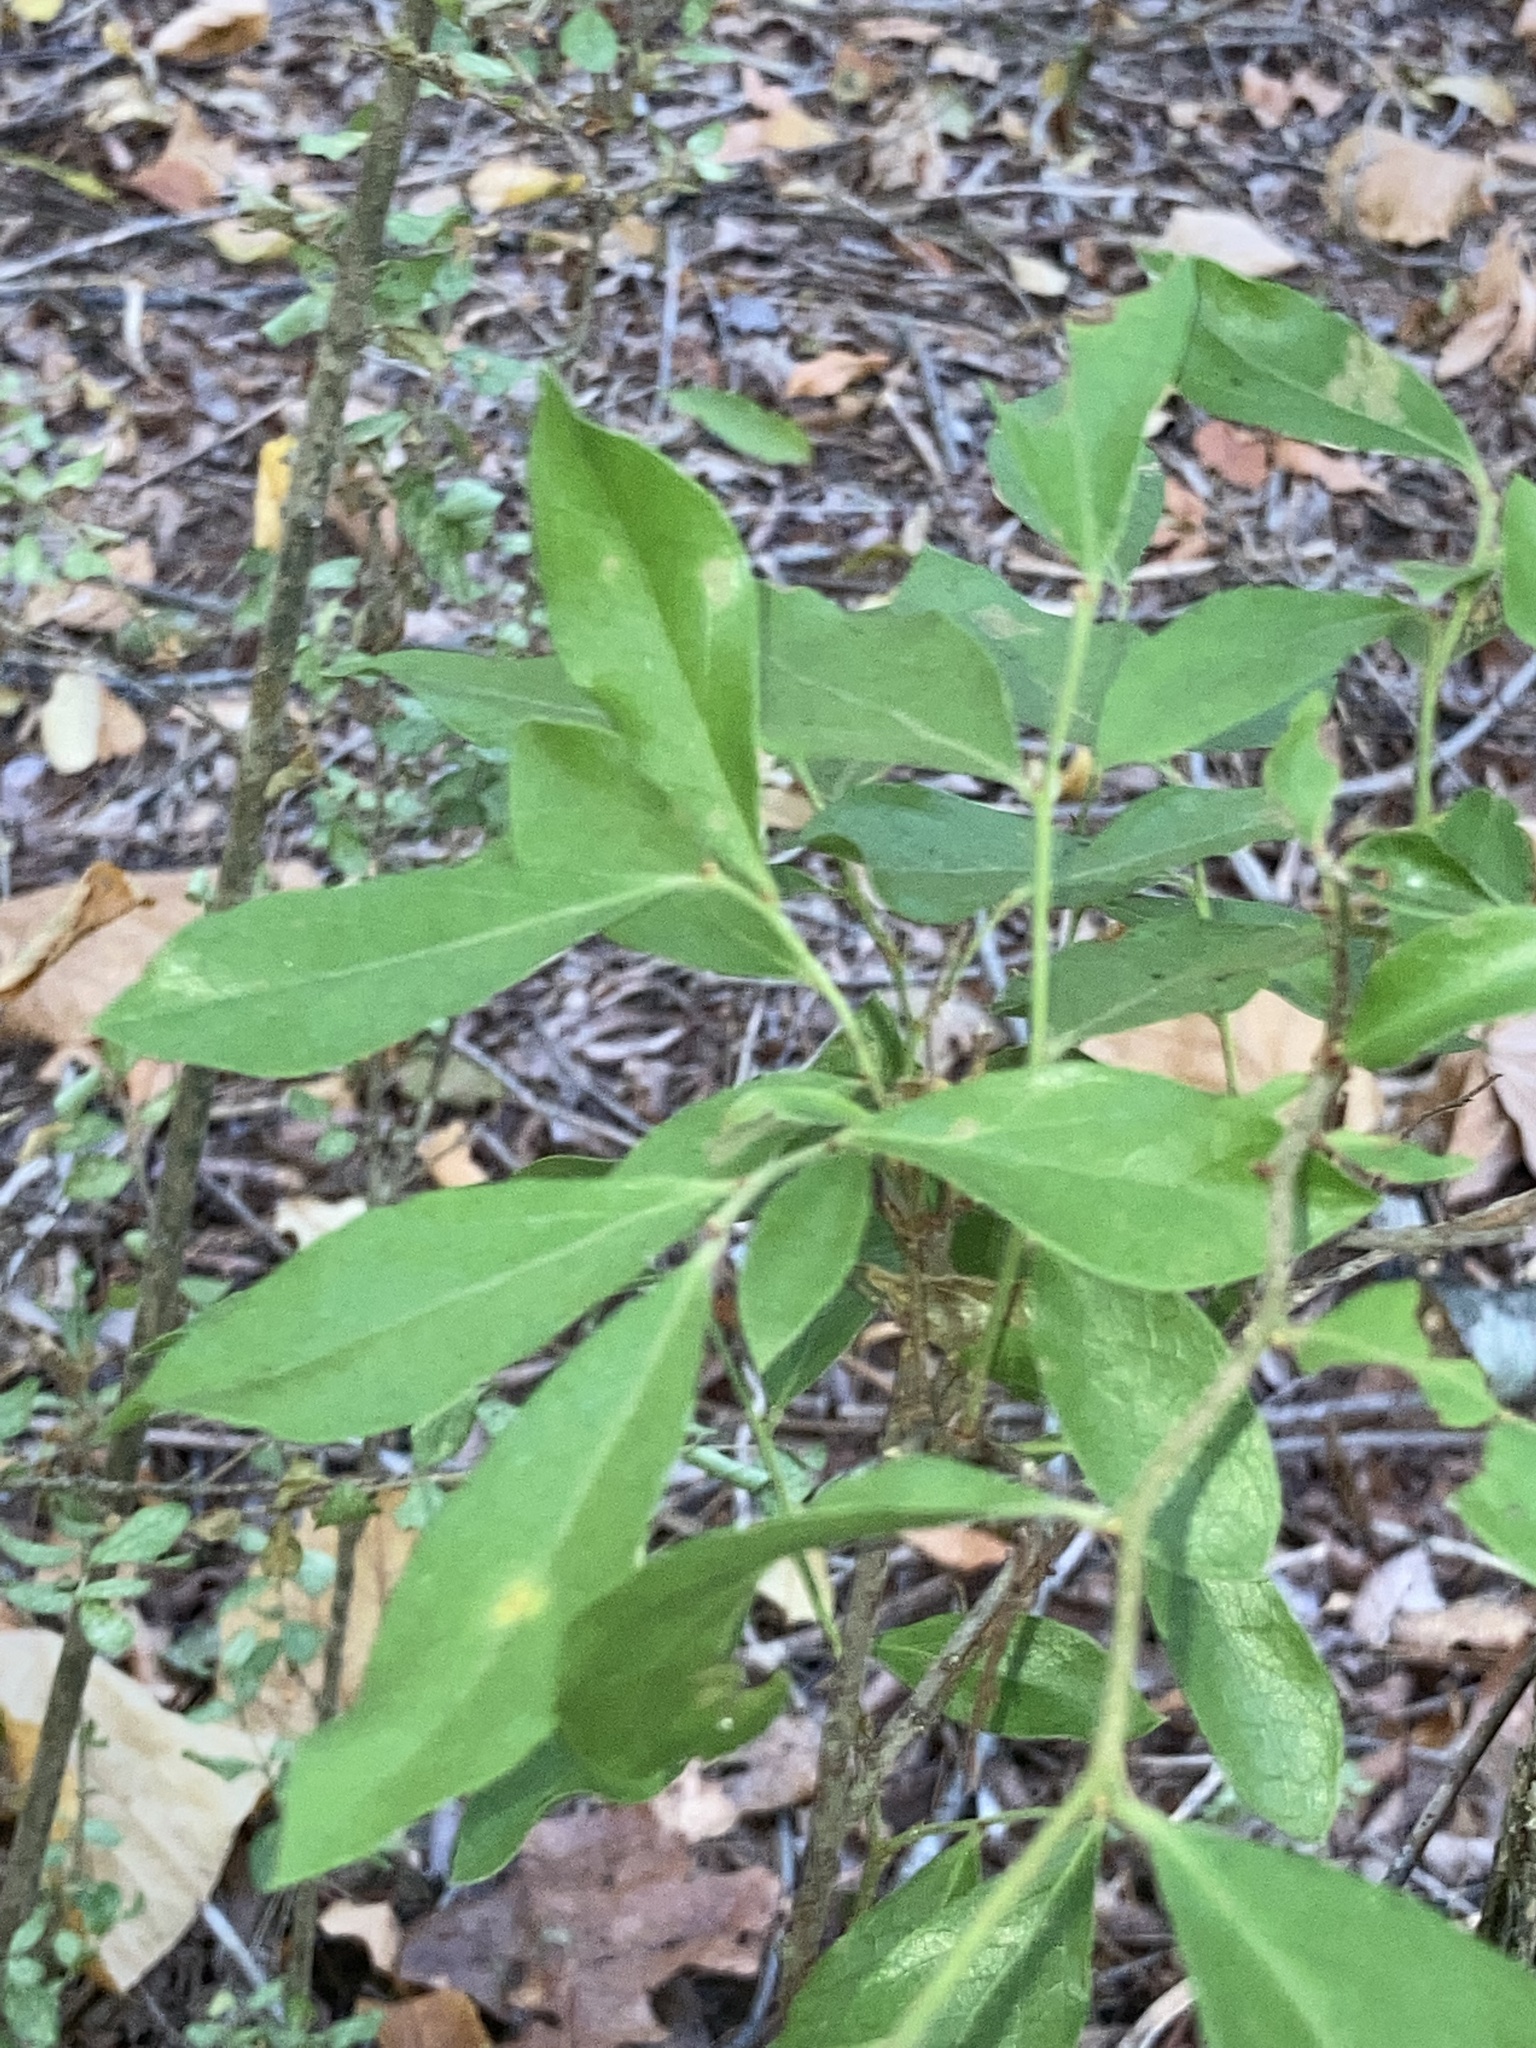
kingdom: Plantae
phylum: Tracheophyta
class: Magnoliopsida
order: Ericales
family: Ericaceae
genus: Vaccinium
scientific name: Vaccinium arboreum
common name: Farkleberry
